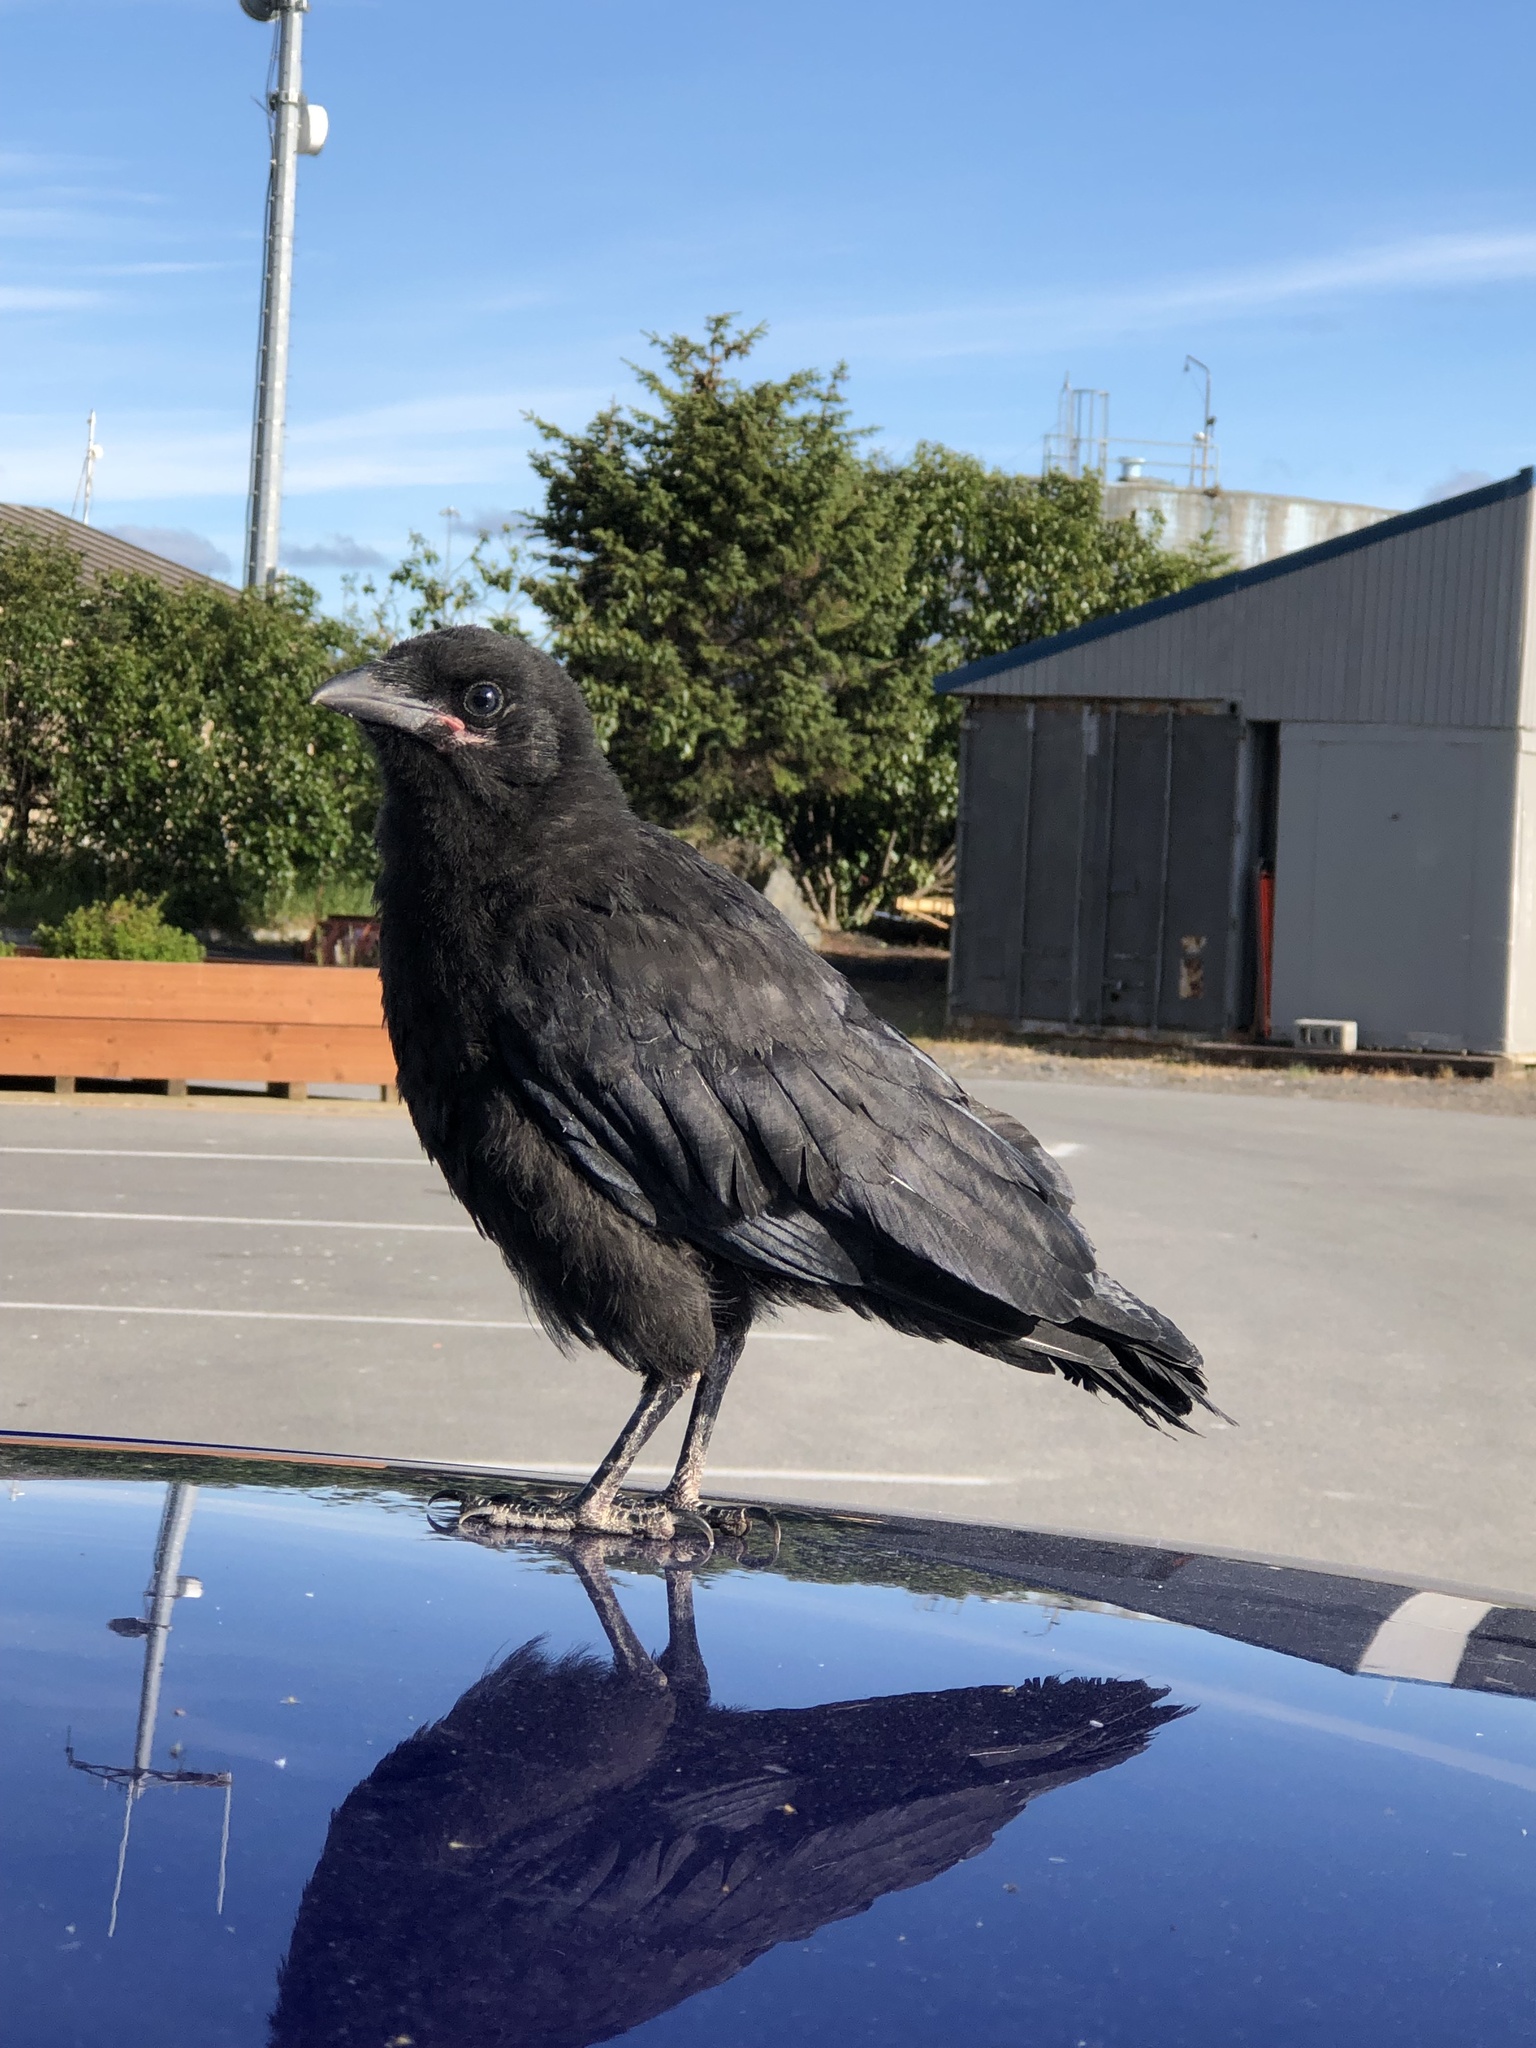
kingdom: Animalia
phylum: Chordata
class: Aves
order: Passeriformes
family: Corvidae
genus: Corvus
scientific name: Corvus brachyrhynchos
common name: American crow
